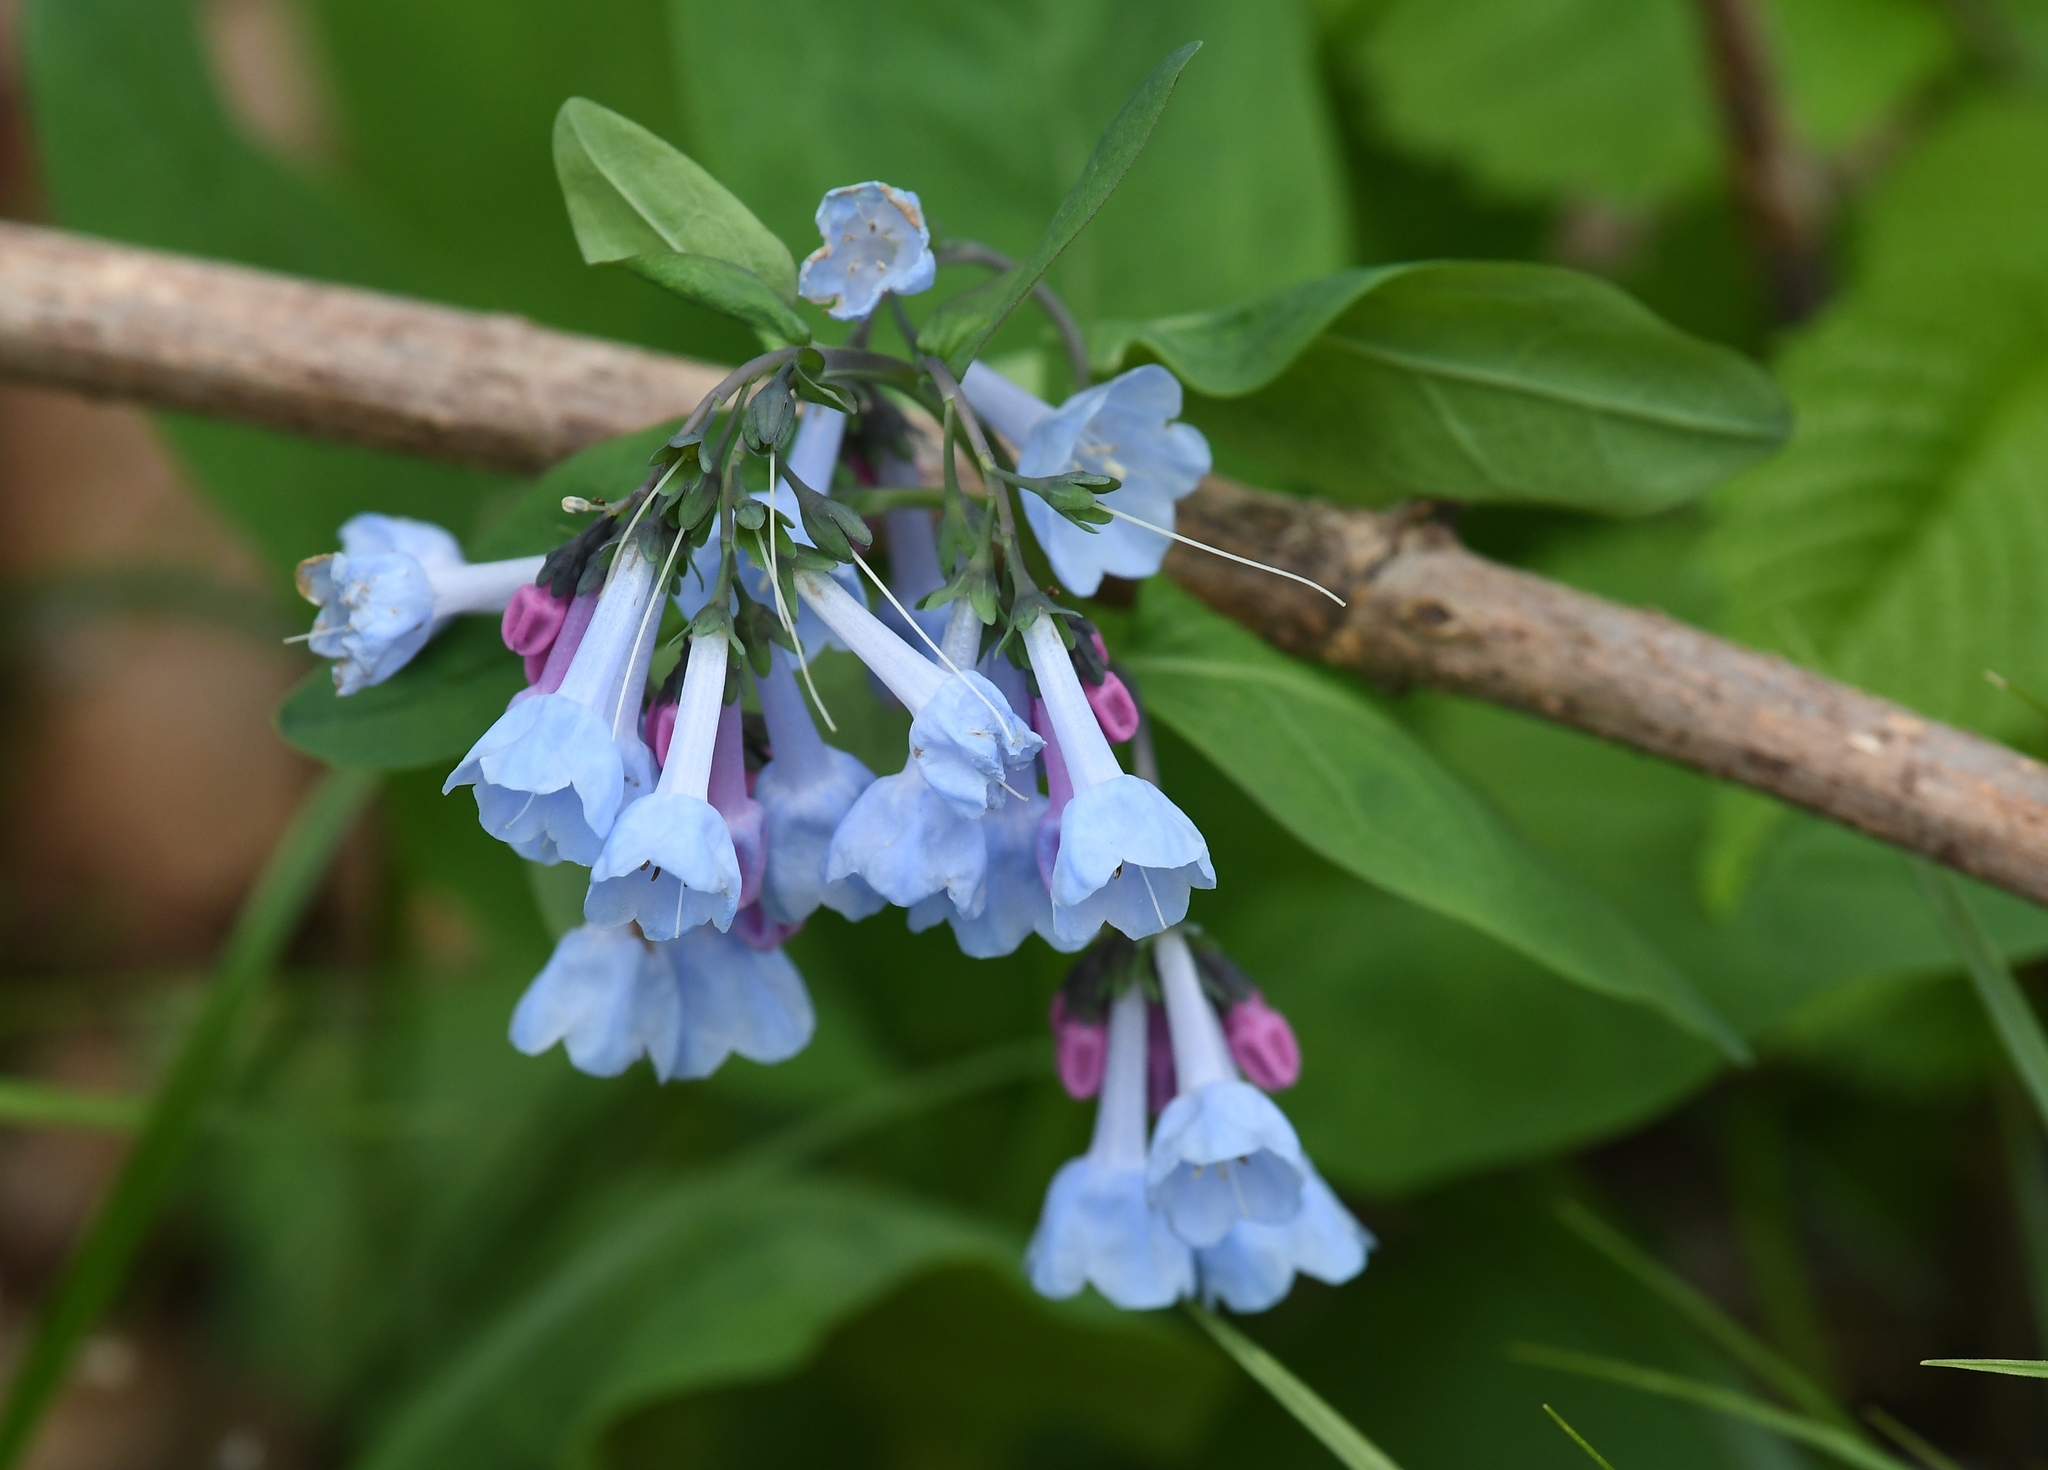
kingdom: Plantae
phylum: Tracheophyta
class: Magnoliopsida
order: Boraginales
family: Boraginaceae
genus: Mertensia
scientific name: Mertensia virginica
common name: Virginia bluebells
